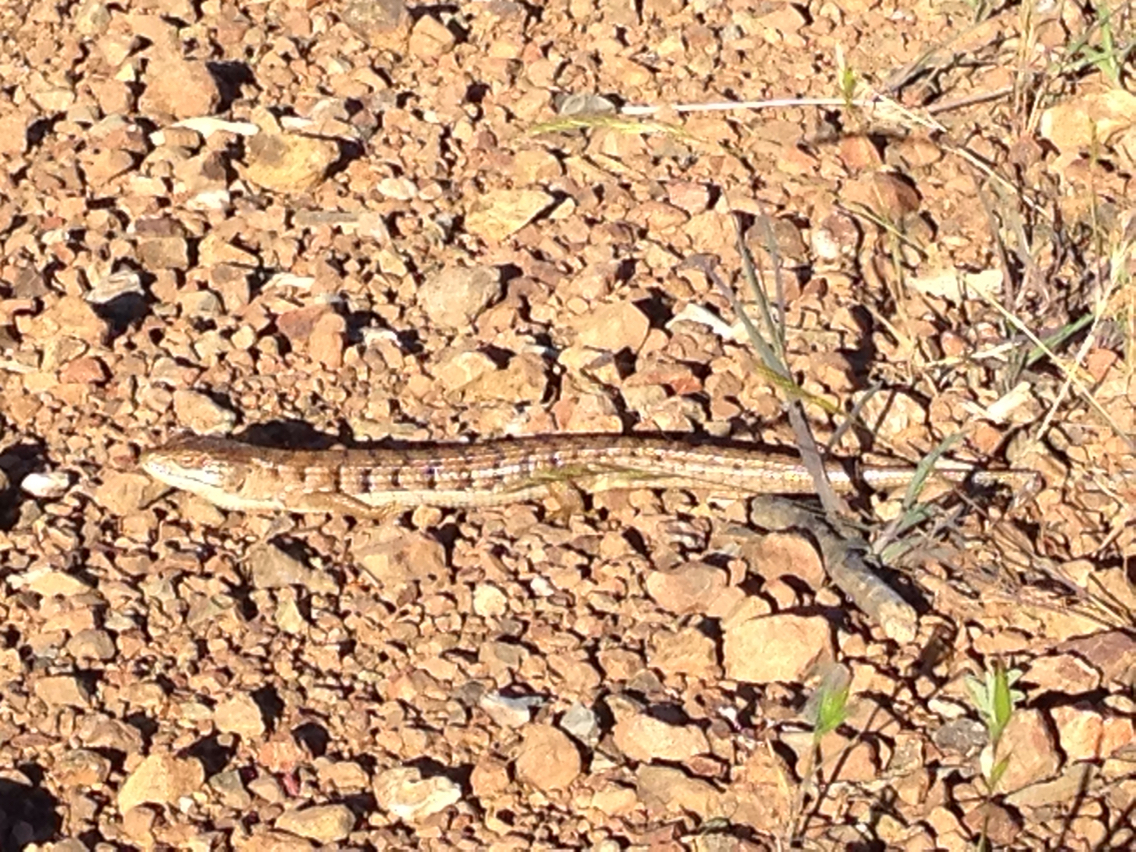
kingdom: Animalia
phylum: Chordata
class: Squamata
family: Anguidae
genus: Elgaria
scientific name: Elgaria multicarinata
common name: Southern alligator lizard
